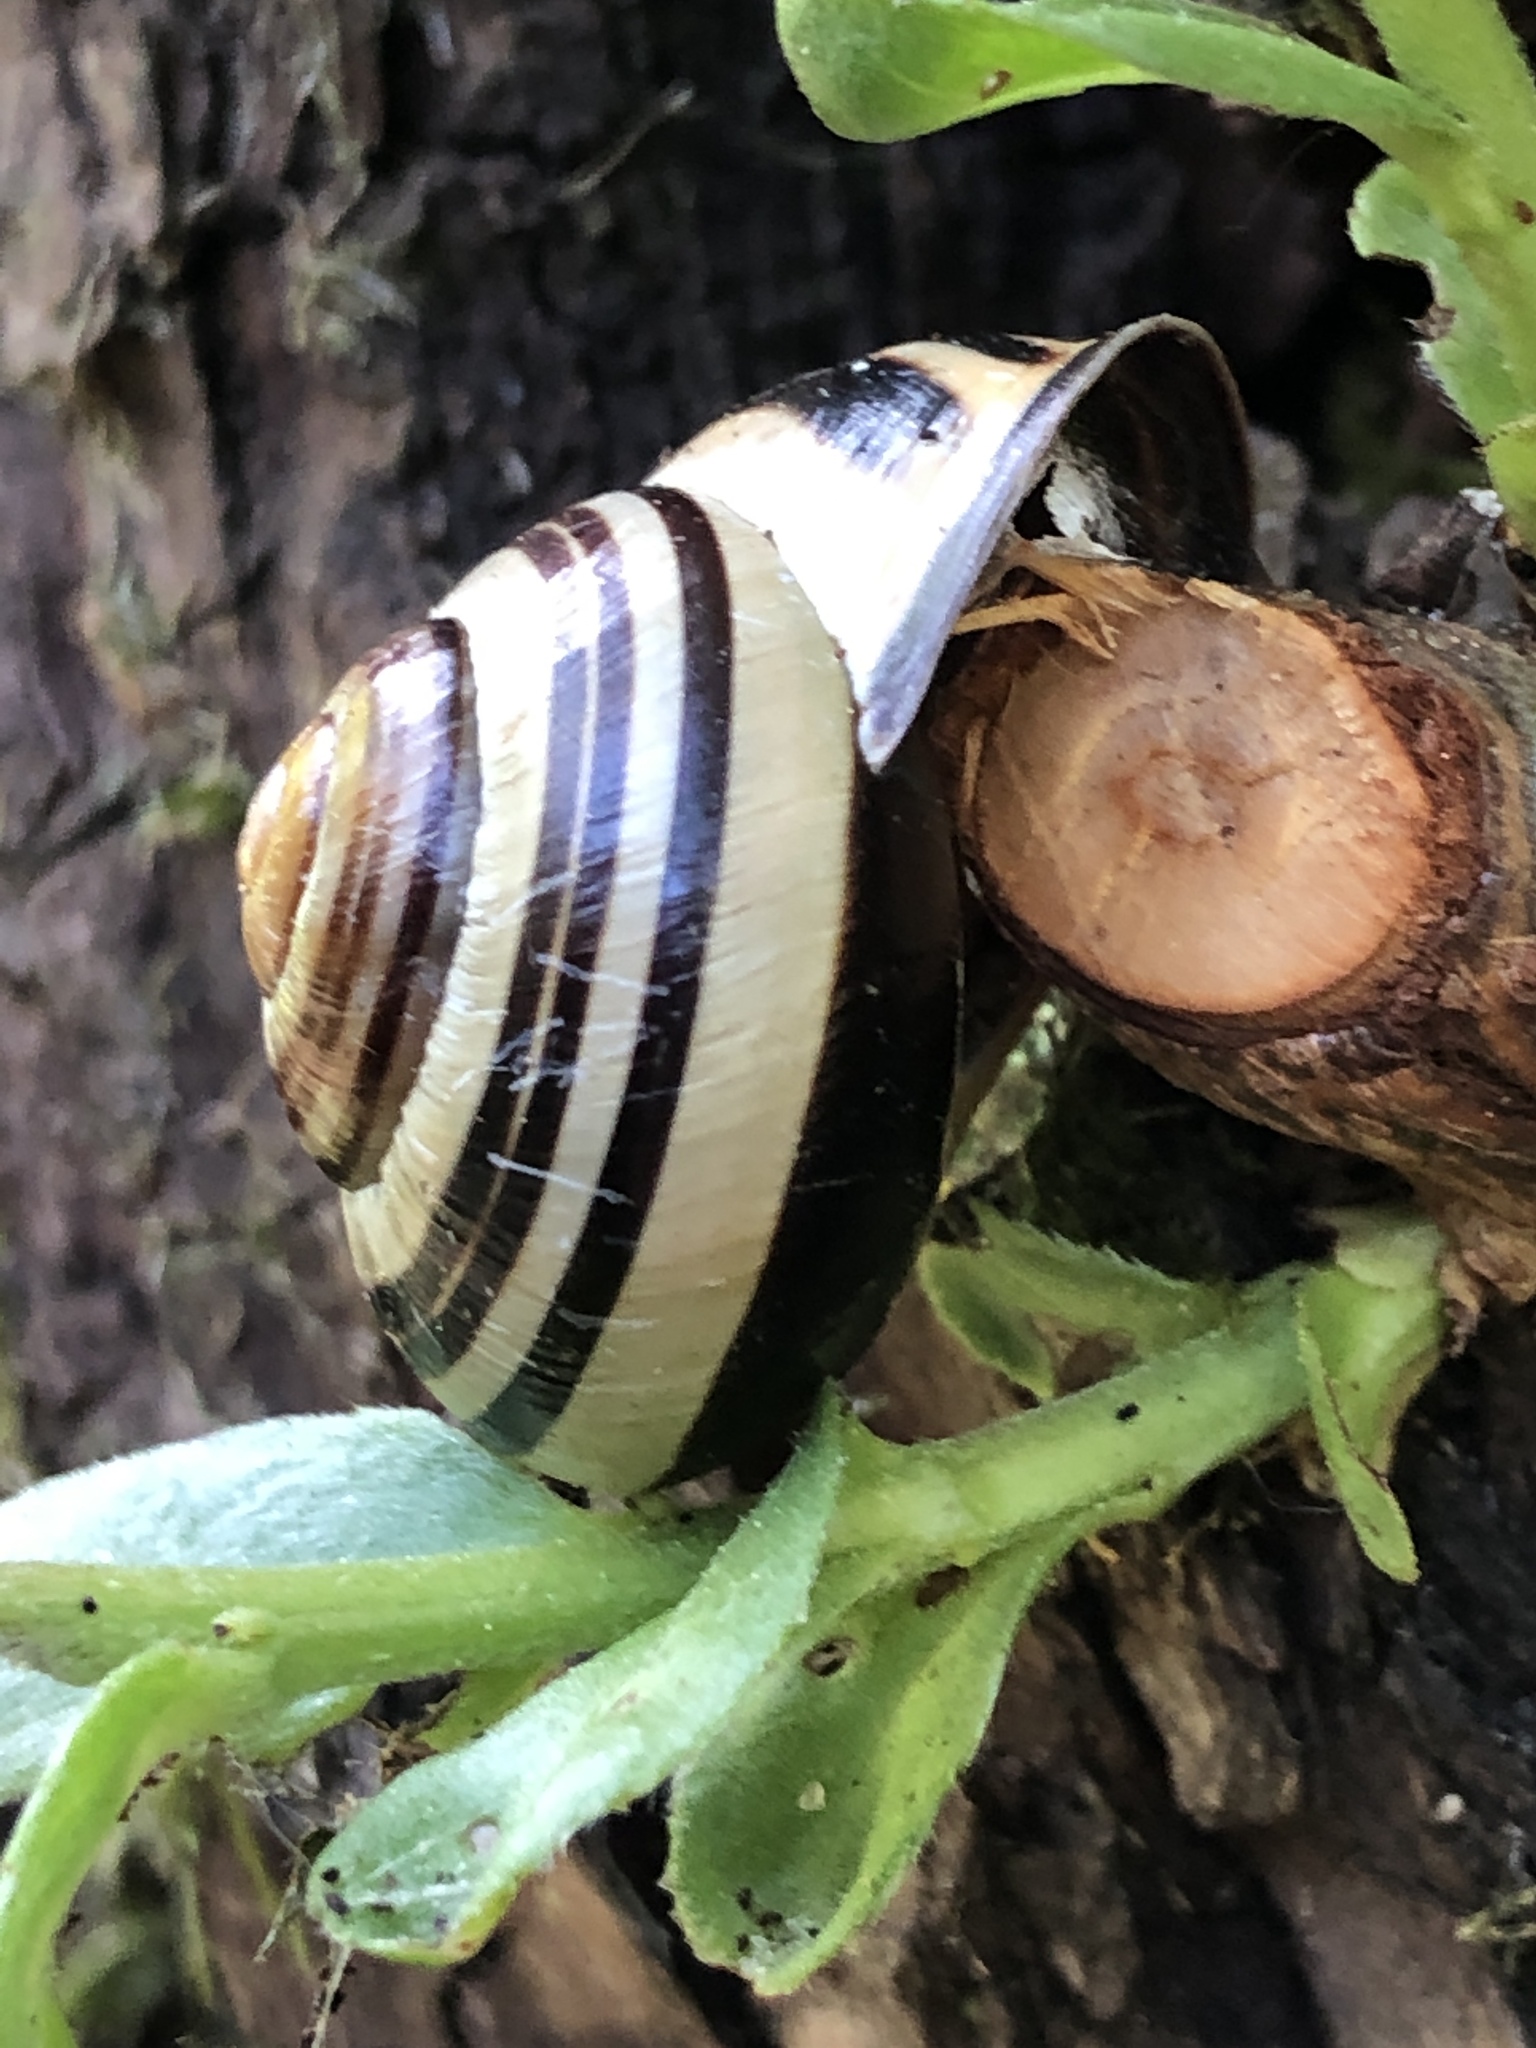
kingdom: Animalia
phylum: Mollusca
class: Gastropoda
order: Stylommatophora
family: Helicidae
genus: Cepaea
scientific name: Cepaea nemoralis
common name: Grovesnail
